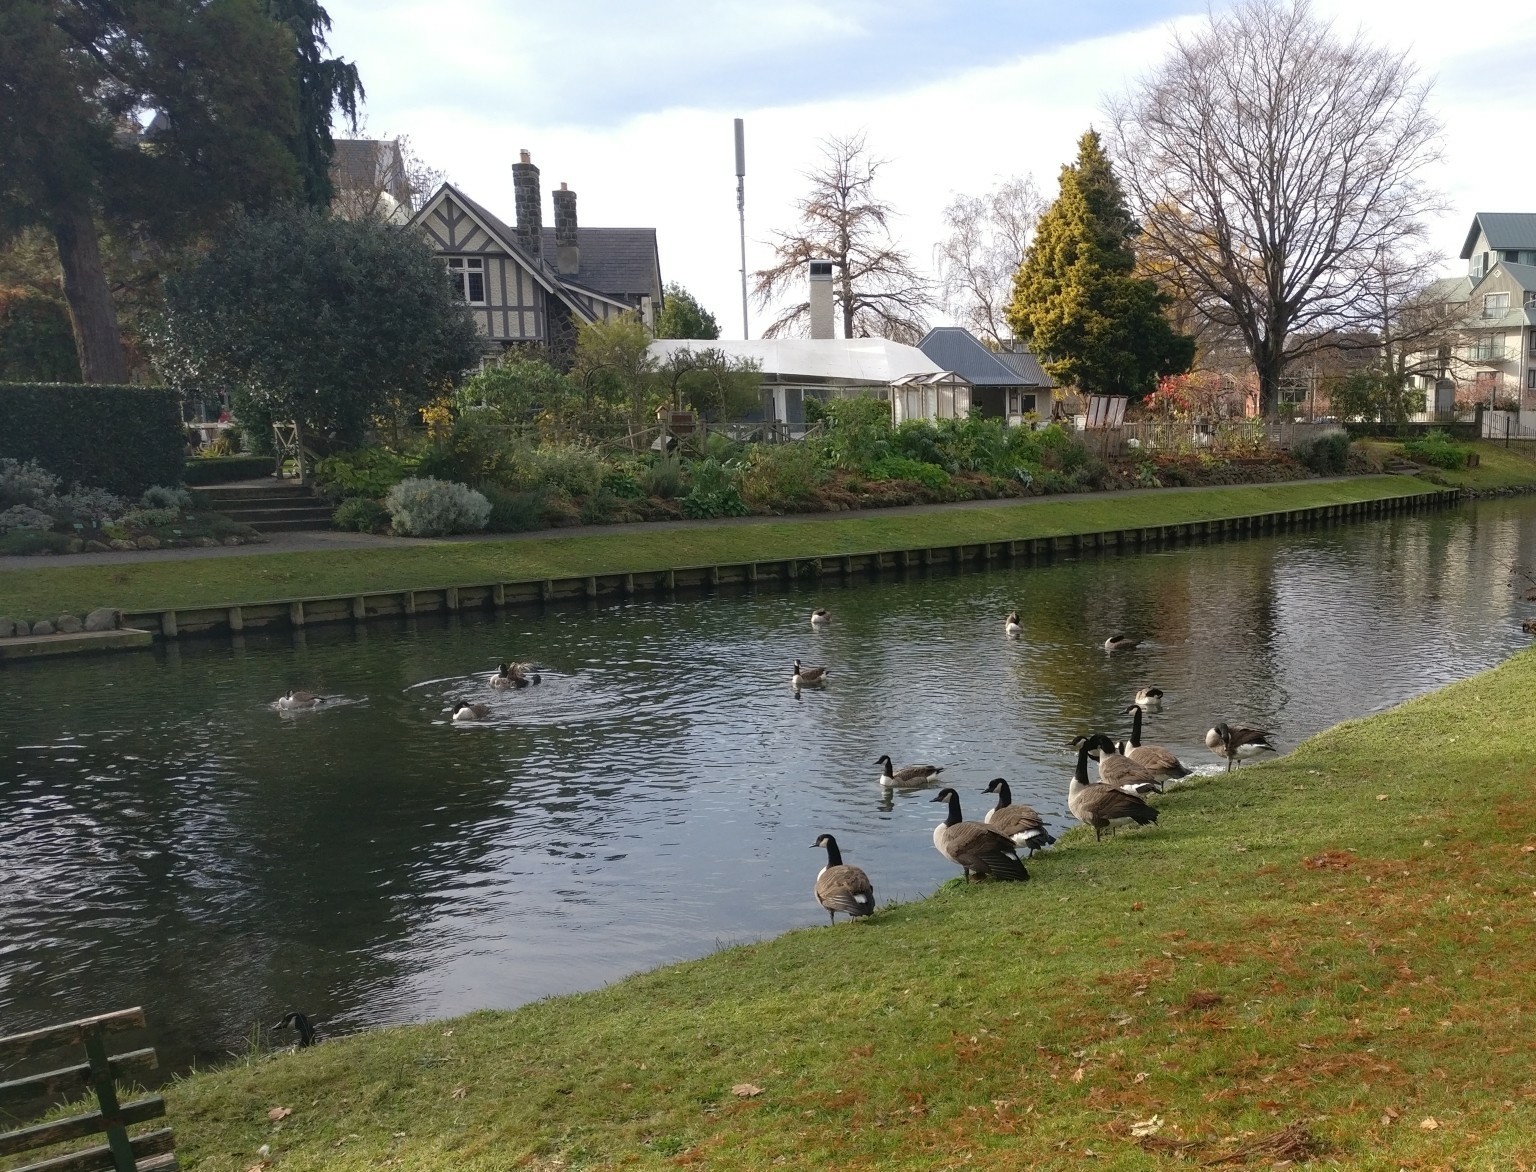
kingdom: Animalia
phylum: Chordata
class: Aves
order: Anseriformes
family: Anatidae
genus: Branta
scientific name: Branta canadensis
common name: Canada goose
